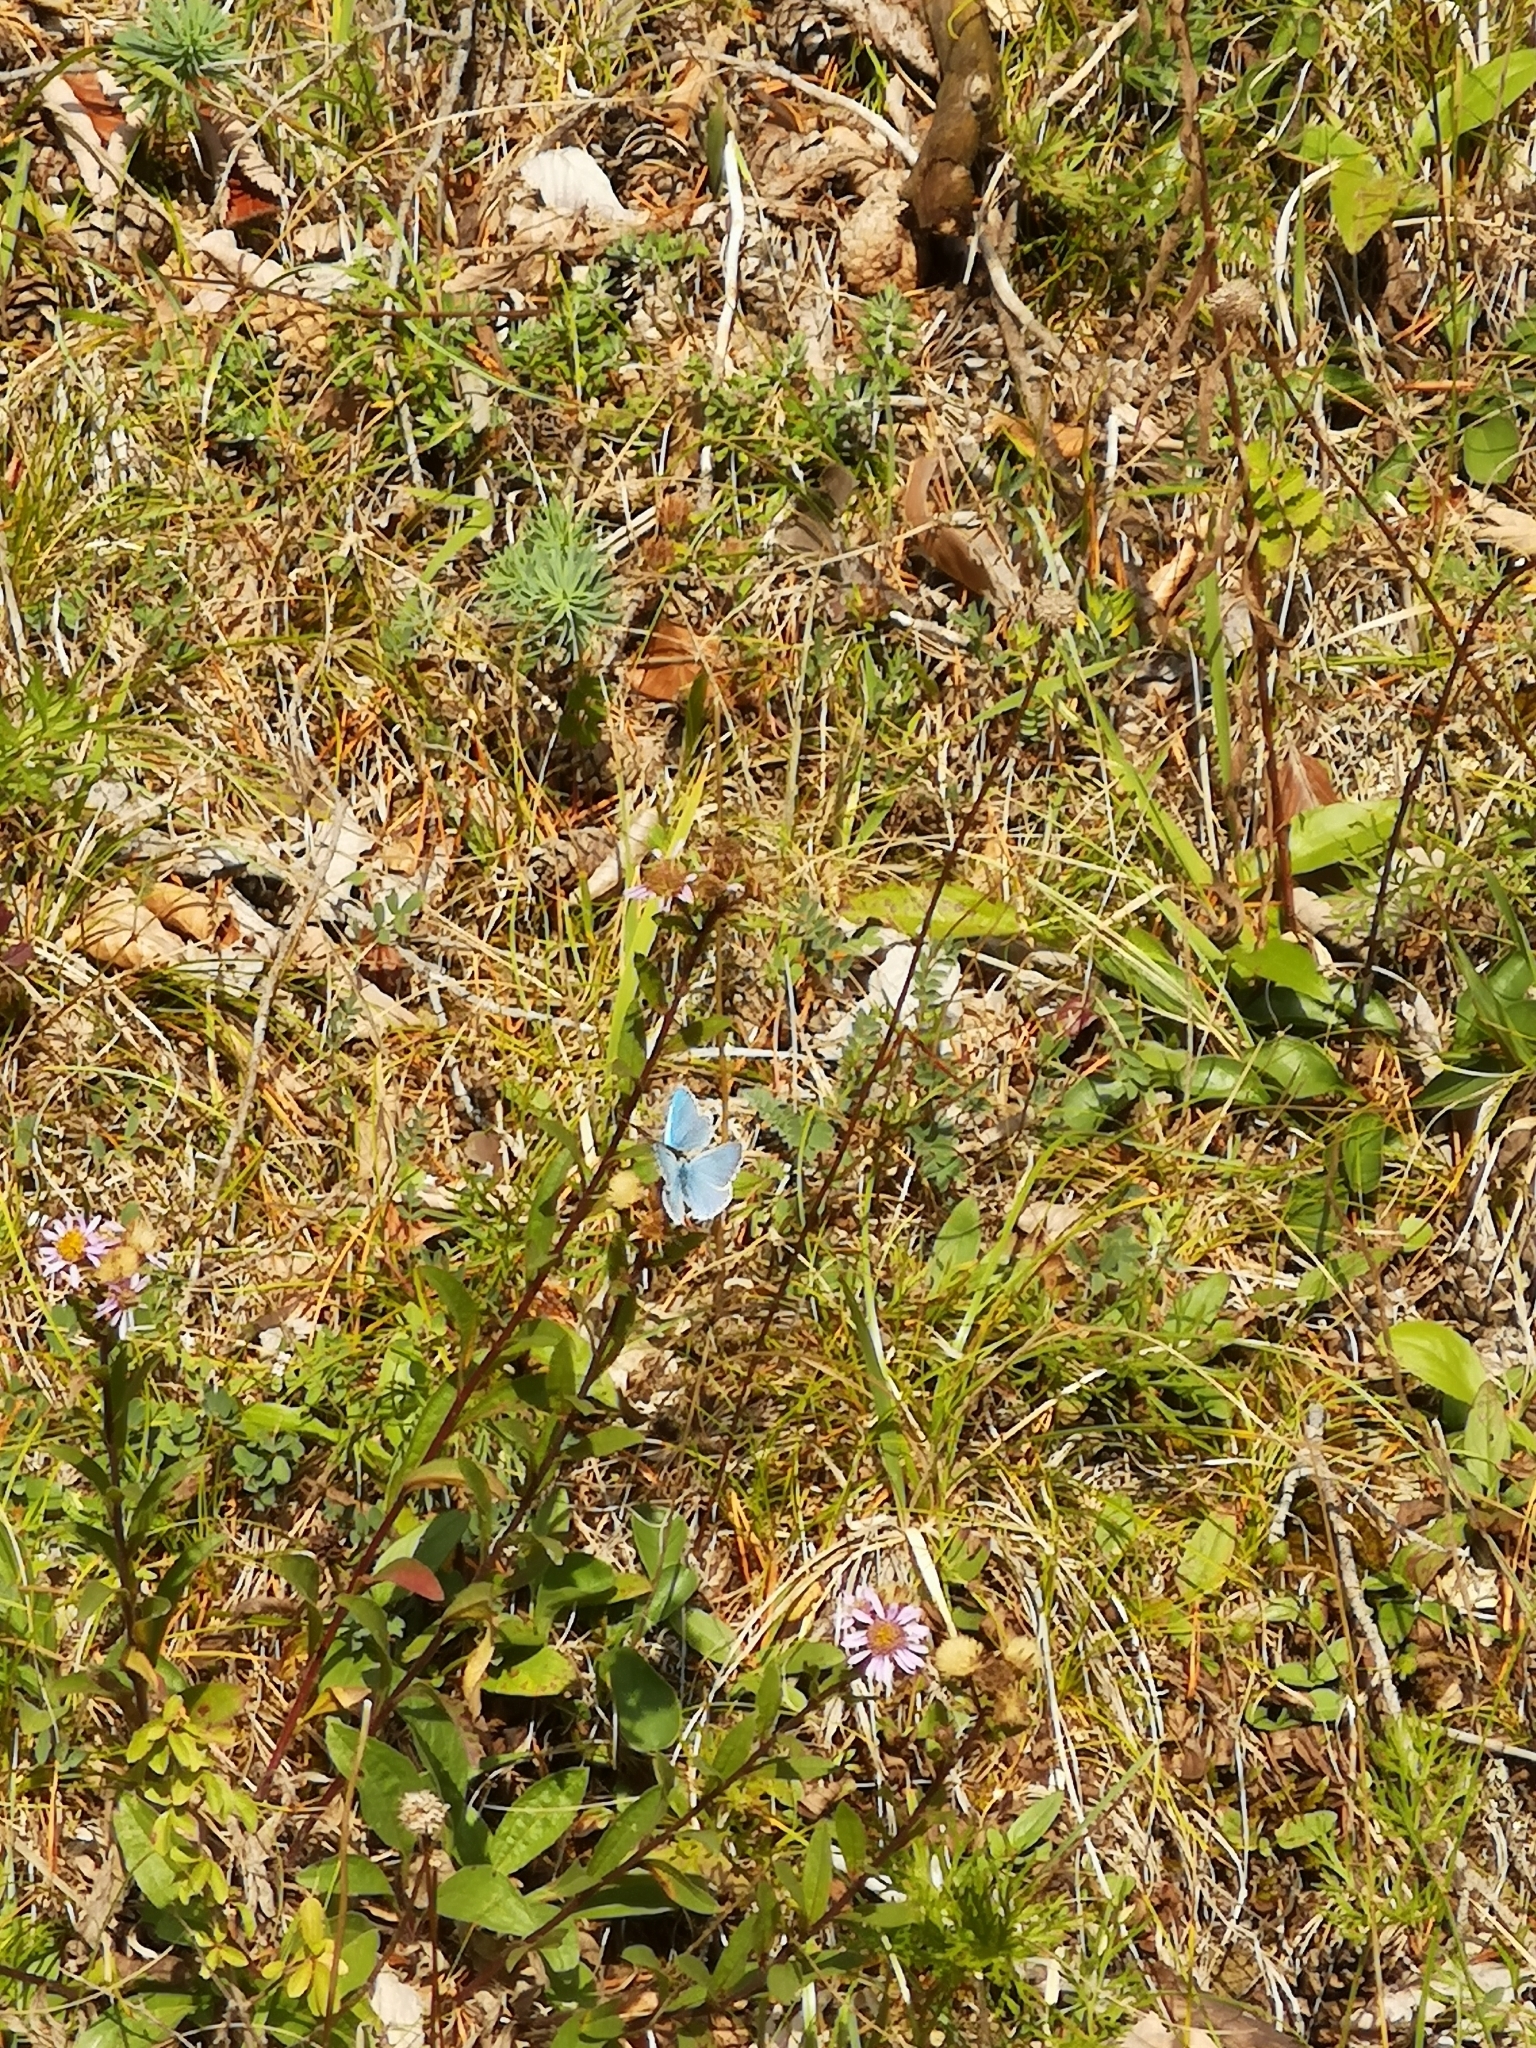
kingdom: Animalia
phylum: Arthropoda
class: Insecta
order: Lepidoptera
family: Lycaenidae
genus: Lysandra
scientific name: Lysandra bellargus
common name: Adonis blue
